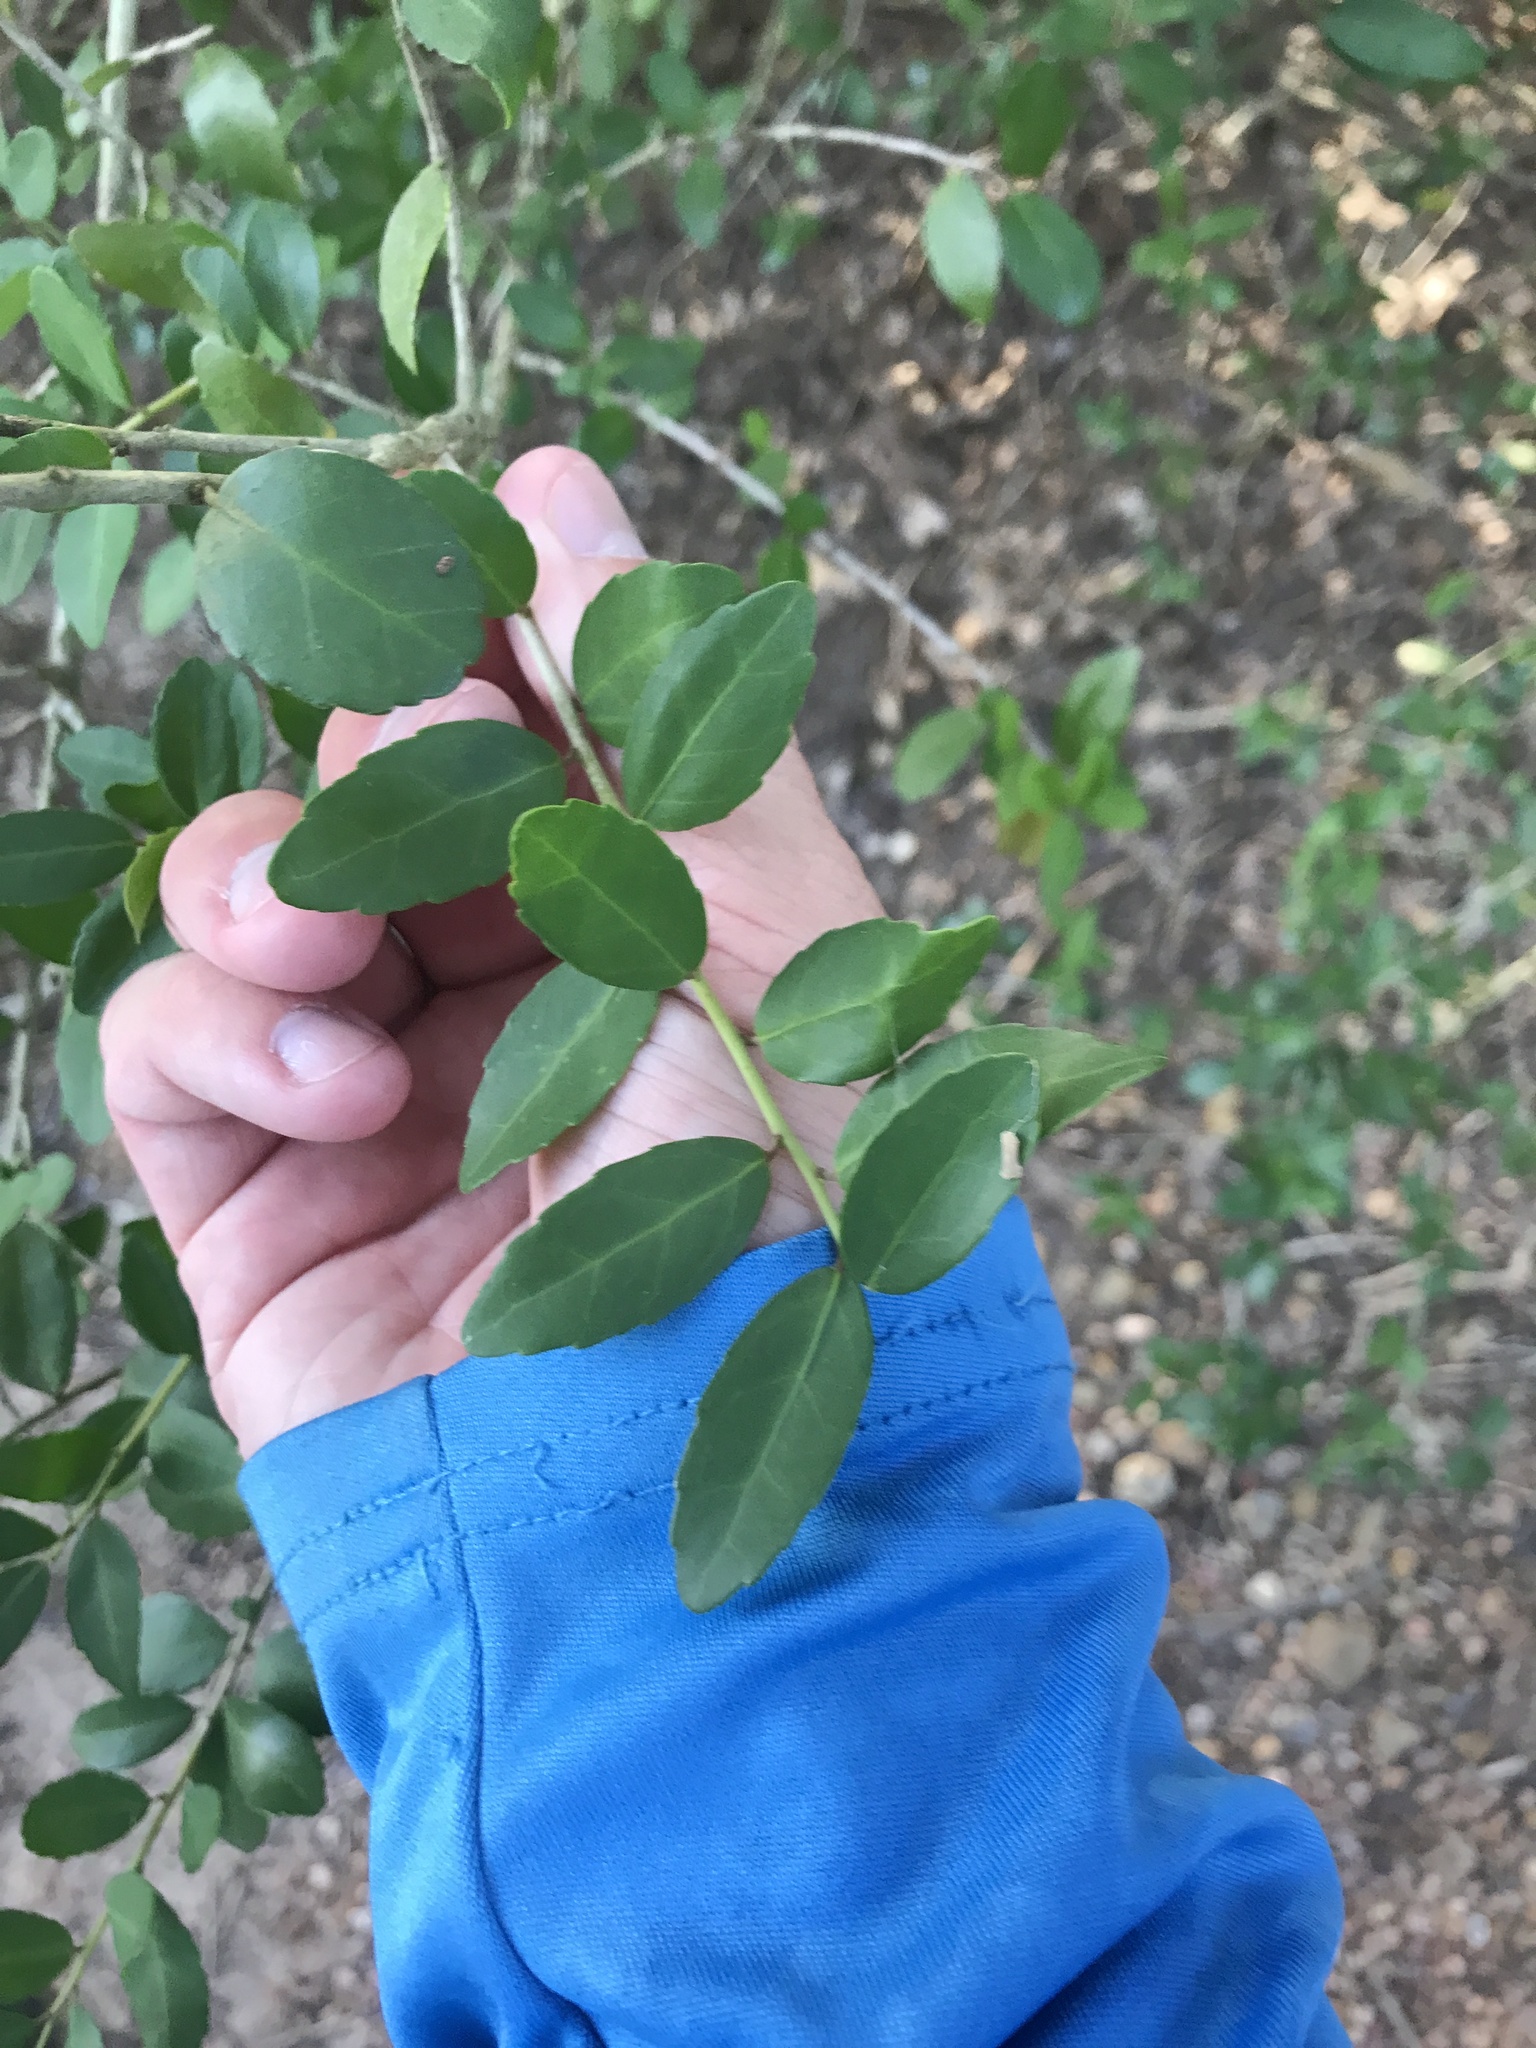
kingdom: Plantae
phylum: Tracheophyta
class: Magnoliopsida
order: Aquifoliales
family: Aquifoliaceae
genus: Ilex
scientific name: Ilex vomitoria
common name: Yaupon holly
